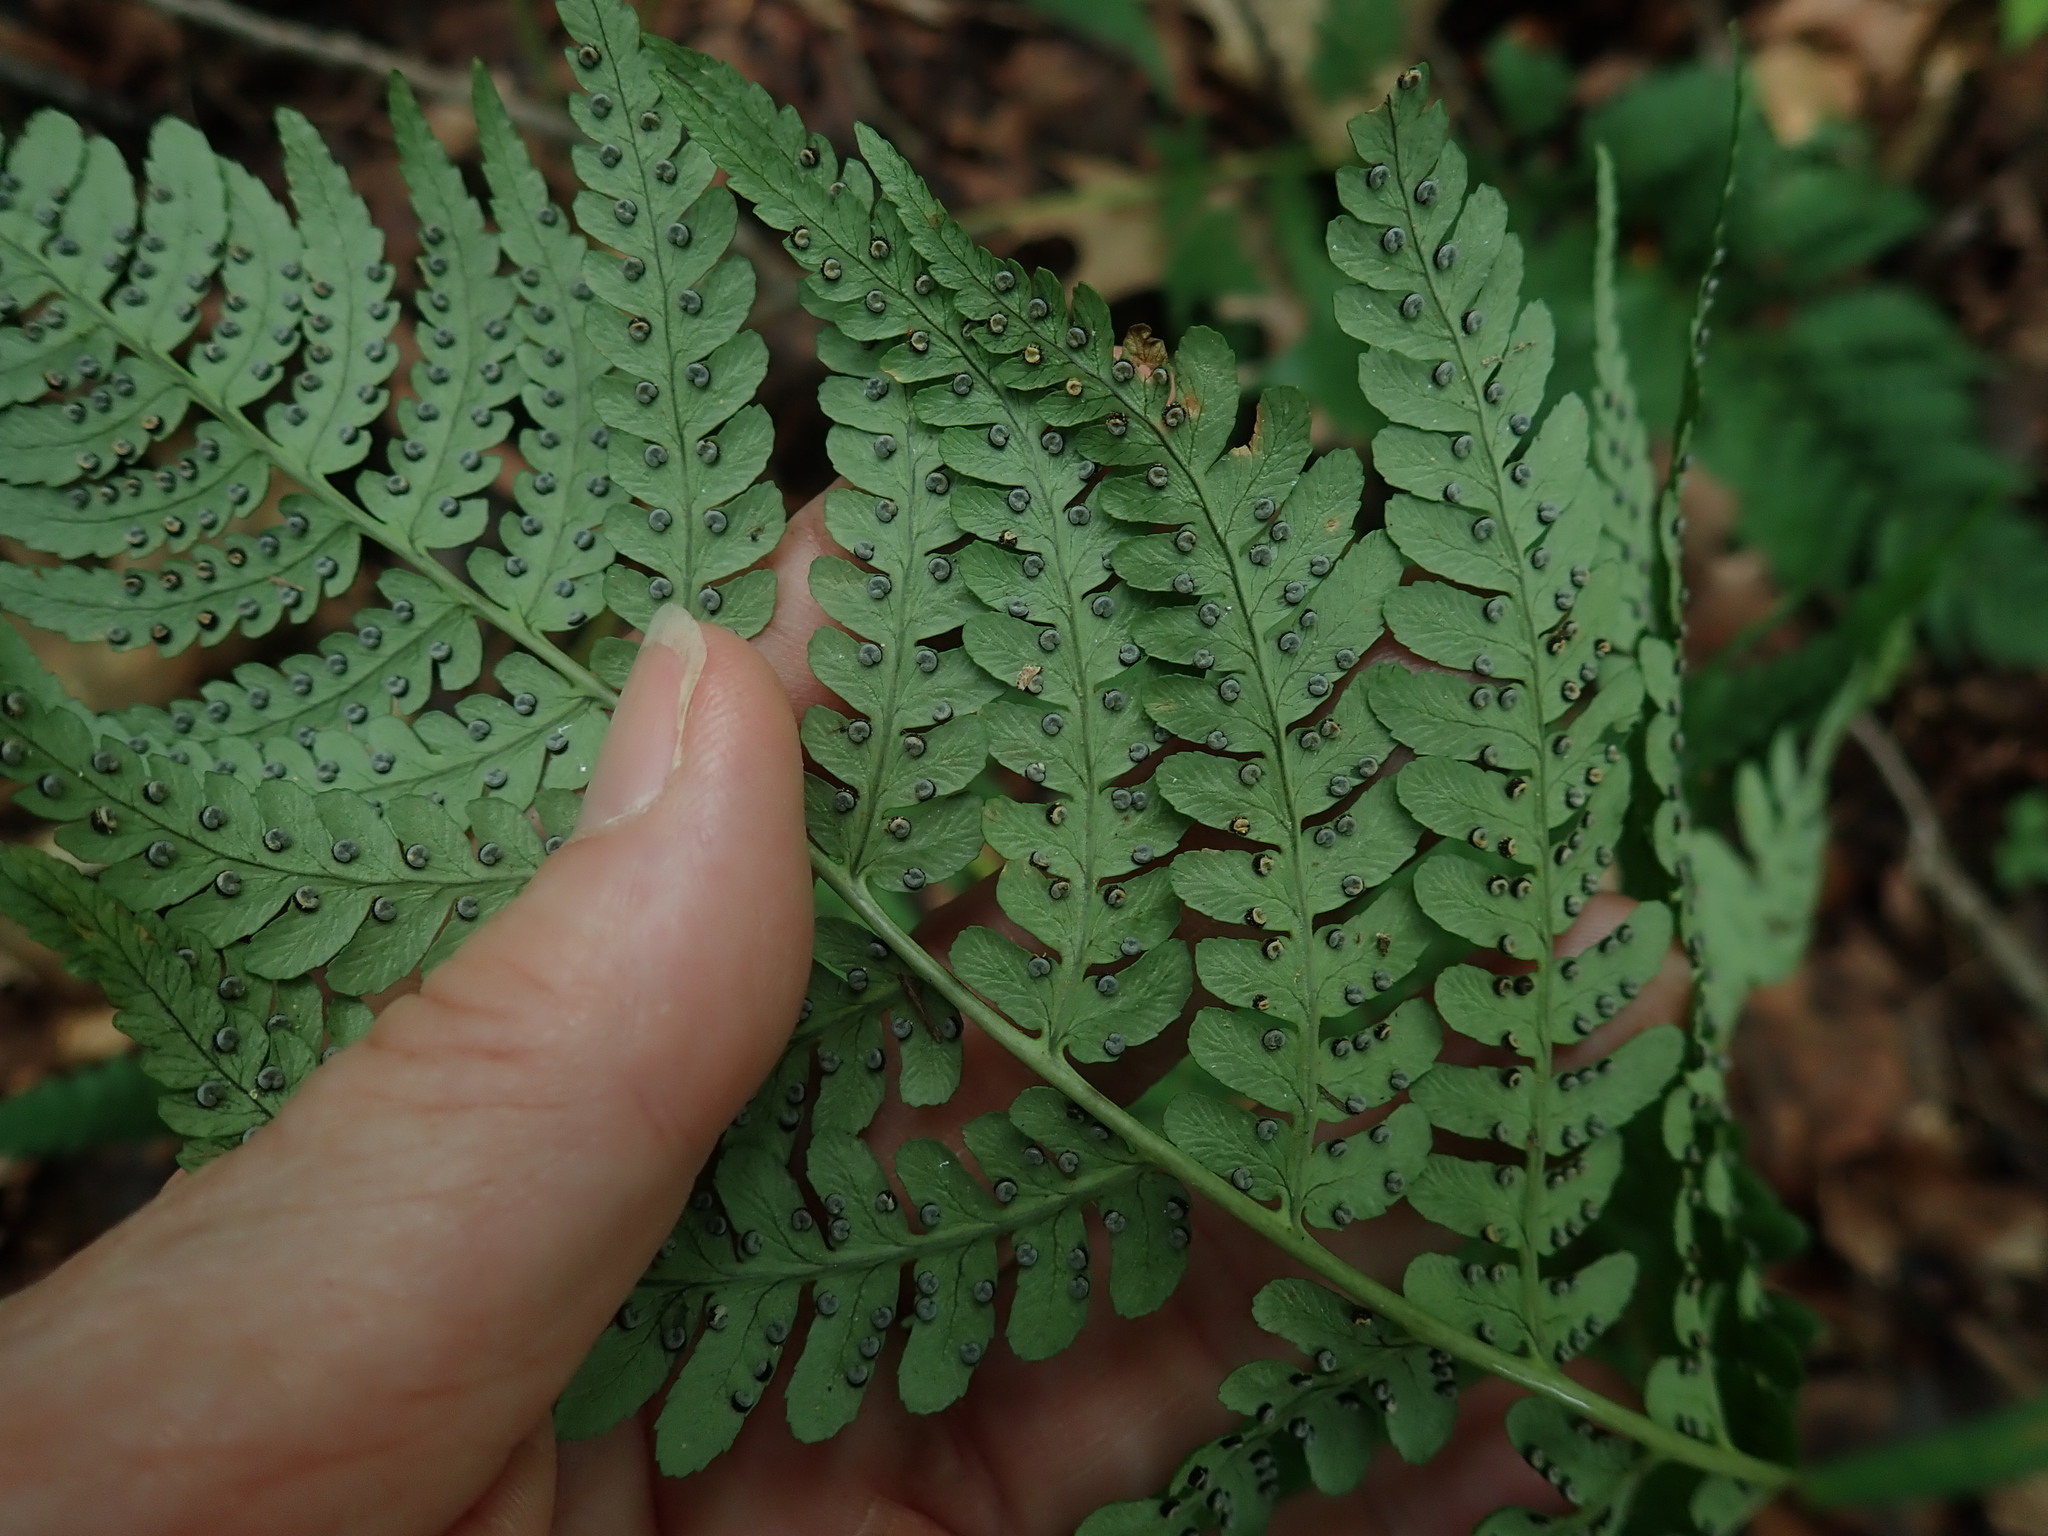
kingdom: Plantae
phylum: Tracheophyta
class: Polypodiopsida
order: Polypodiales
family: Dryopteridaceae
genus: Dryopteris
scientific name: Dryopteris marginalis
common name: Marginal wood fern
